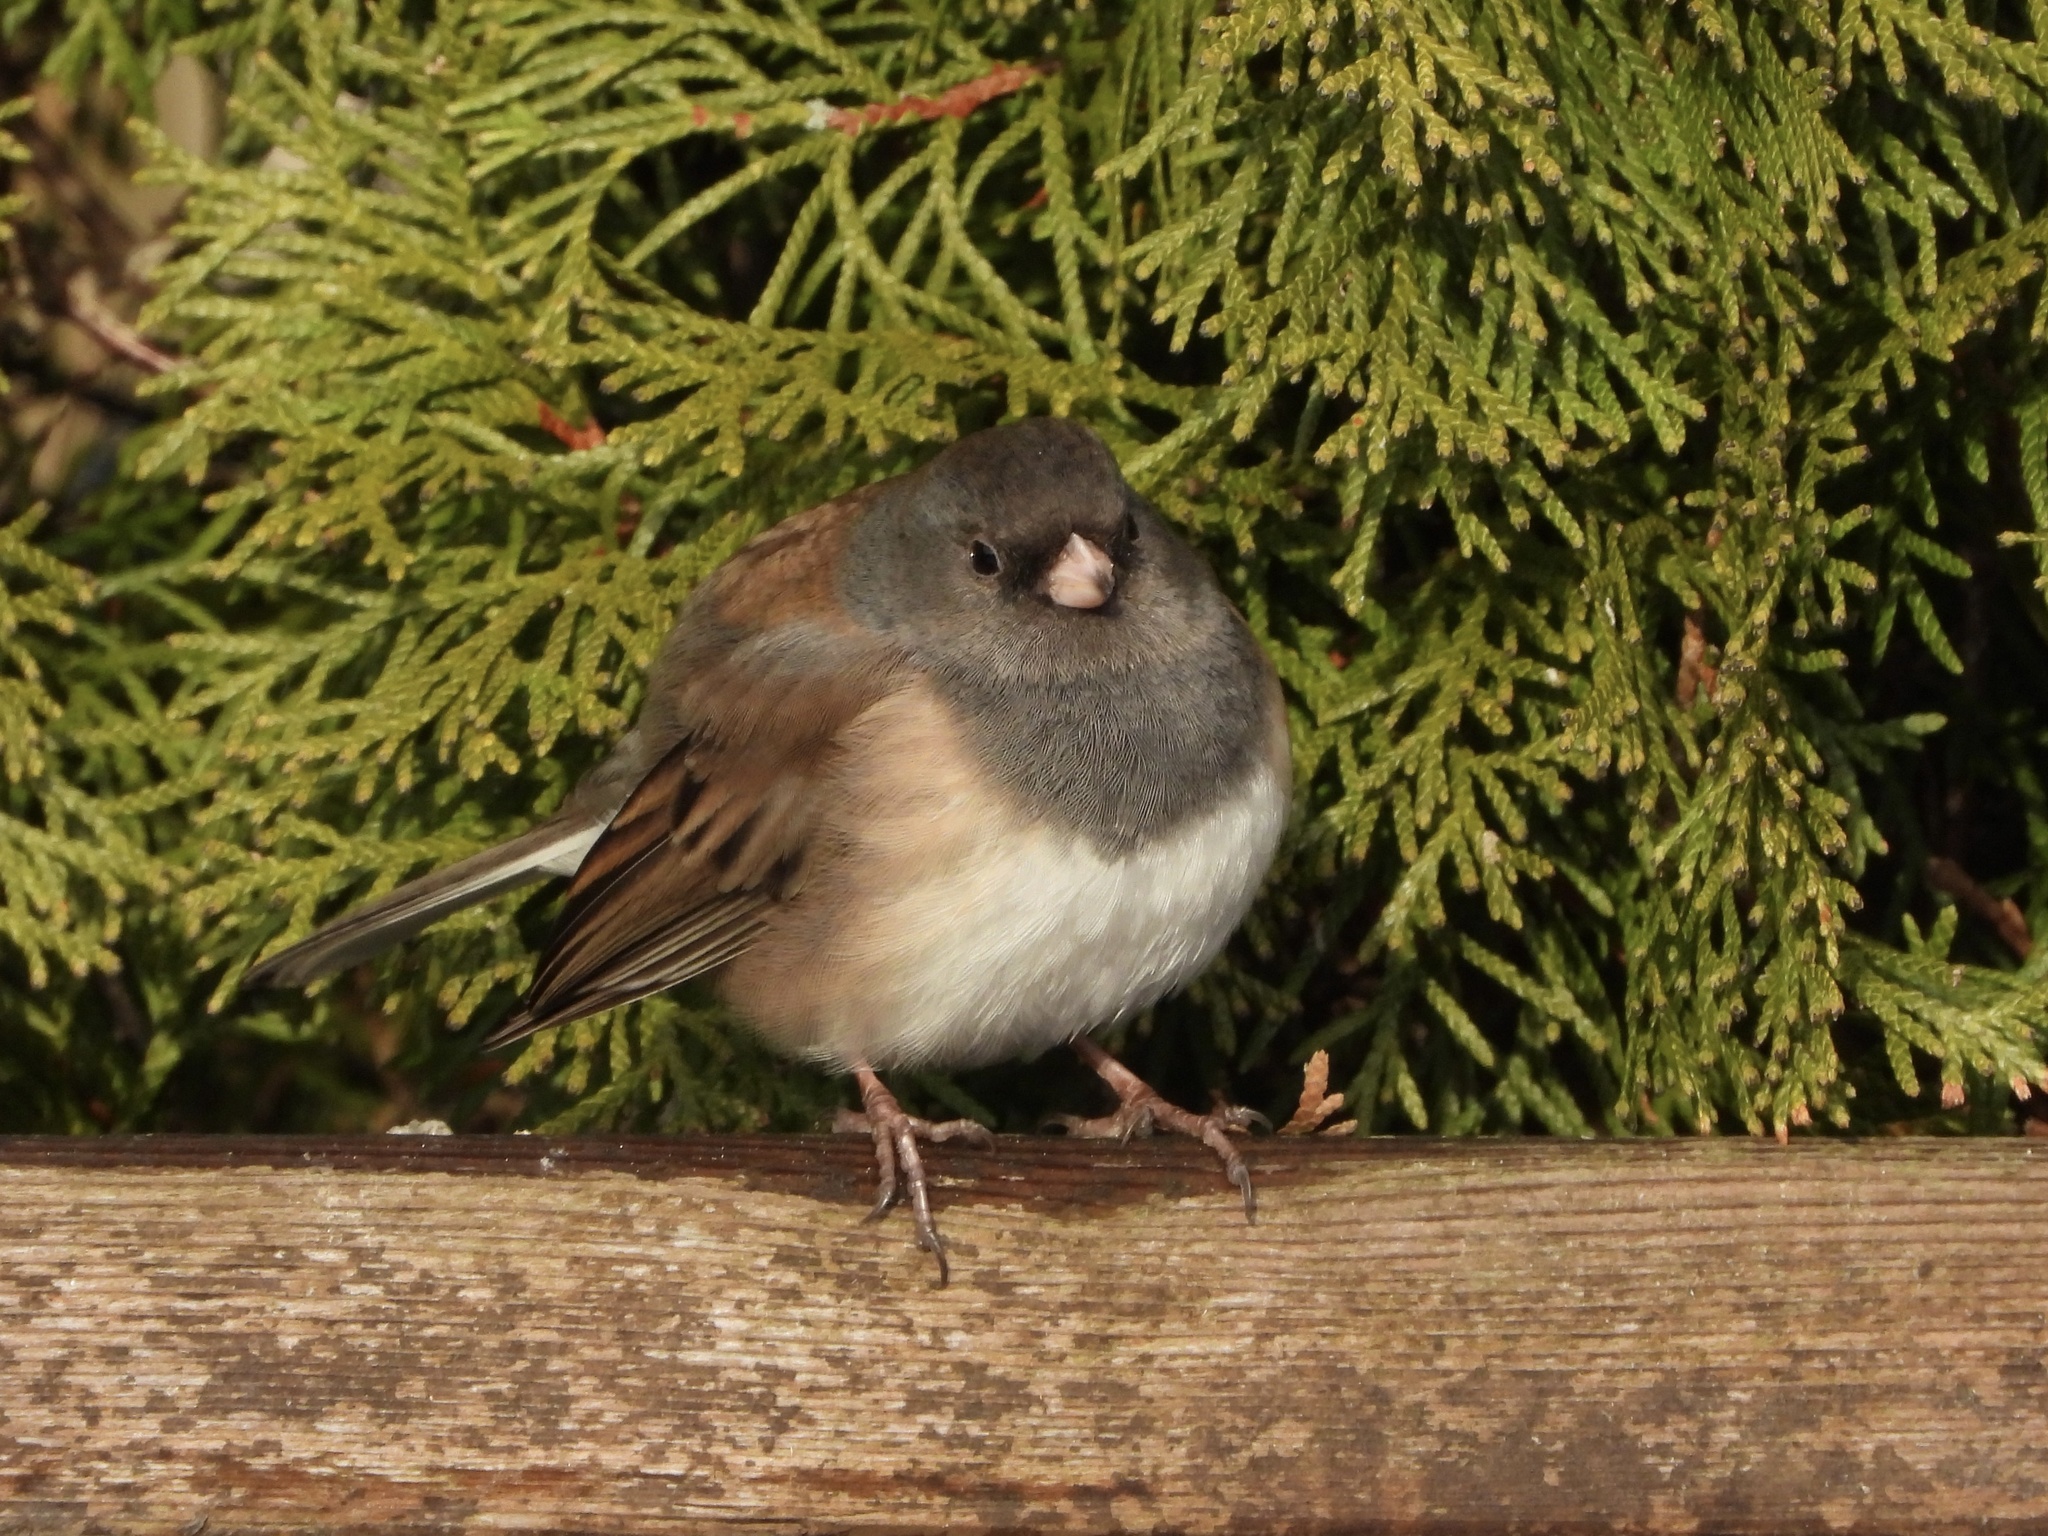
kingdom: Animalia
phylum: Chordata
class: Aves
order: Passeriformes
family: Passerellidae
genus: Junco
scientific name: Junco hyemalis
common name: Dark-eyed junco
